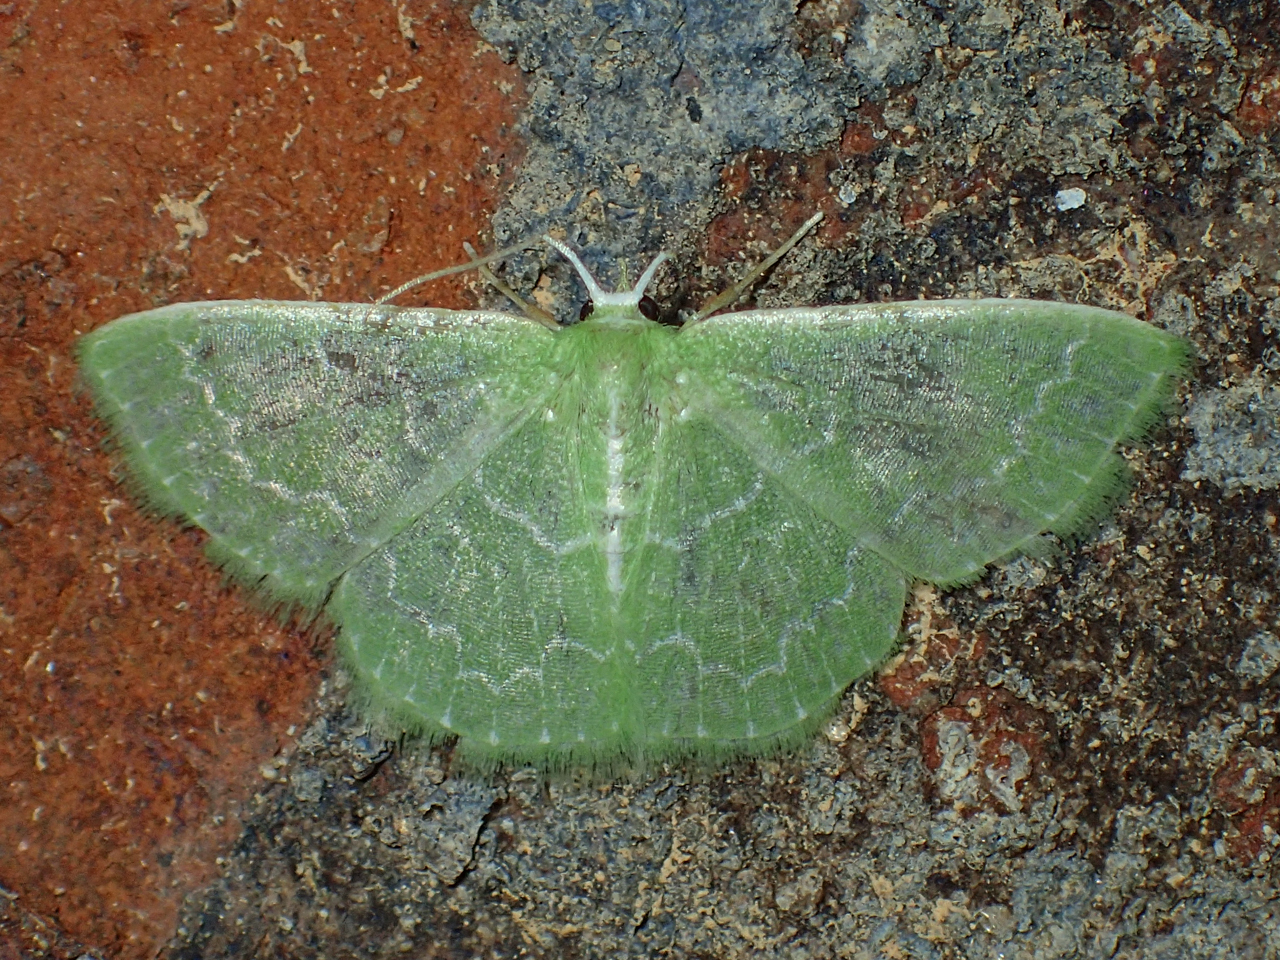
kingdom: Animalia
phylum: Arthropoda
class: Insecta
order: Lepidoptera
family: Geometridae
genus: Synchlora
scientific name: Synchlora frondaria
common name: Southern emerald
